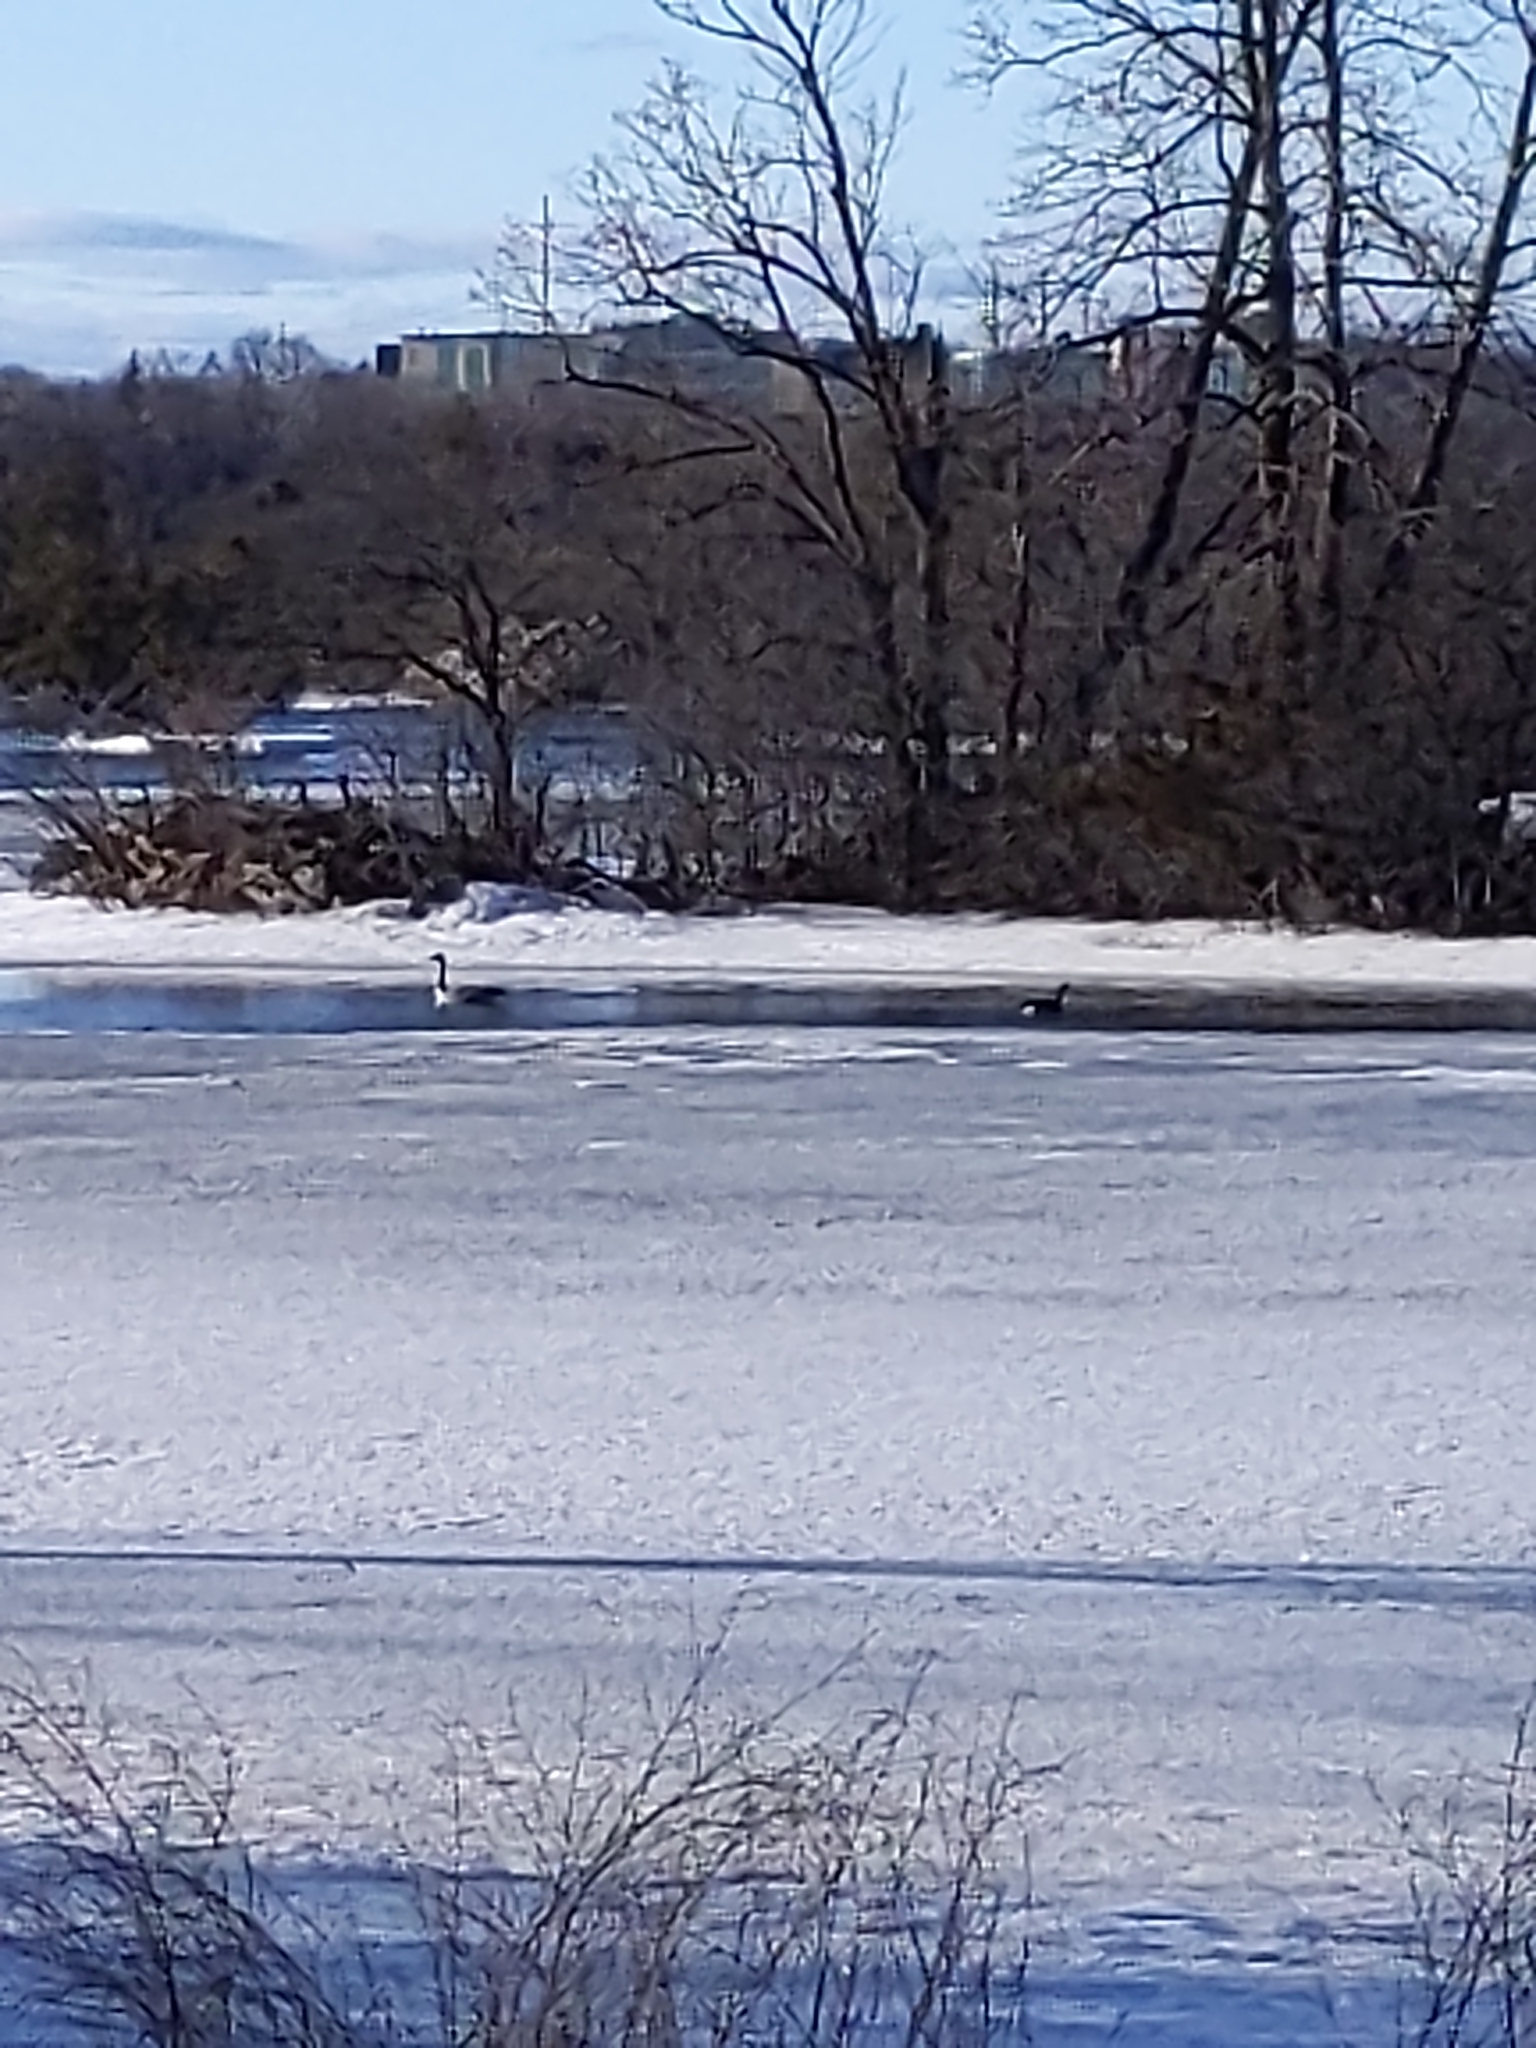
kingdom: Animalia
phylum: Chordata
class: Aves
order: Anseriformes
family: Anatidae
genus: Branta
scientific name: Branta canadensis
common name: Canada goose
